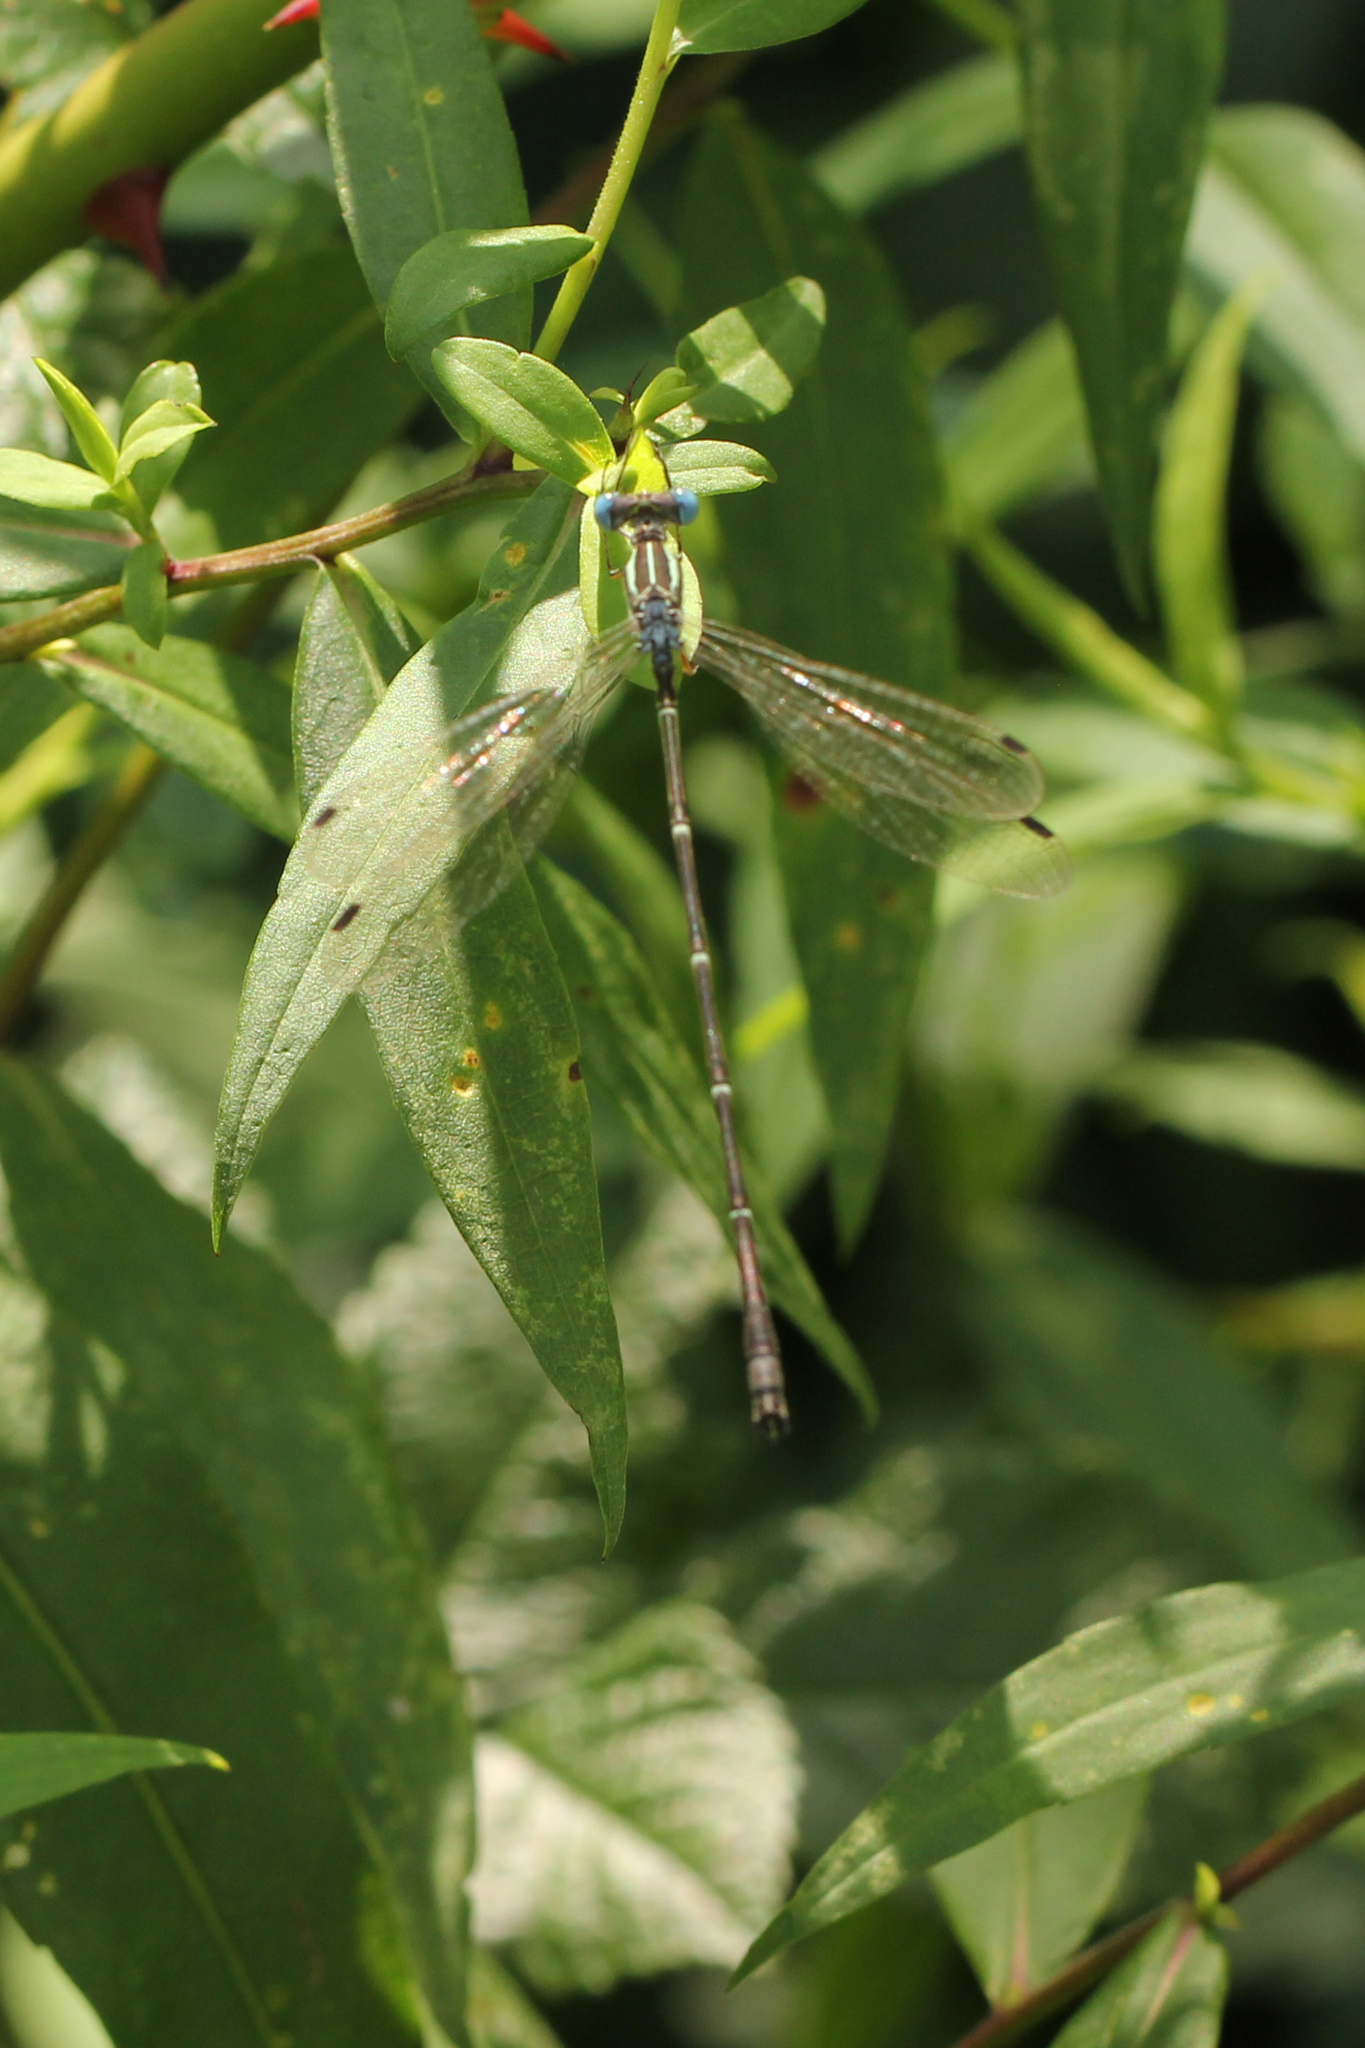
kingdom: Animalia
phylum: Arthropoda
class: Insecta
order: Odonata
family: Lestidae
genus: Lestes
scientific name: Lestes rectangularis
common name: Slender spreadwing
